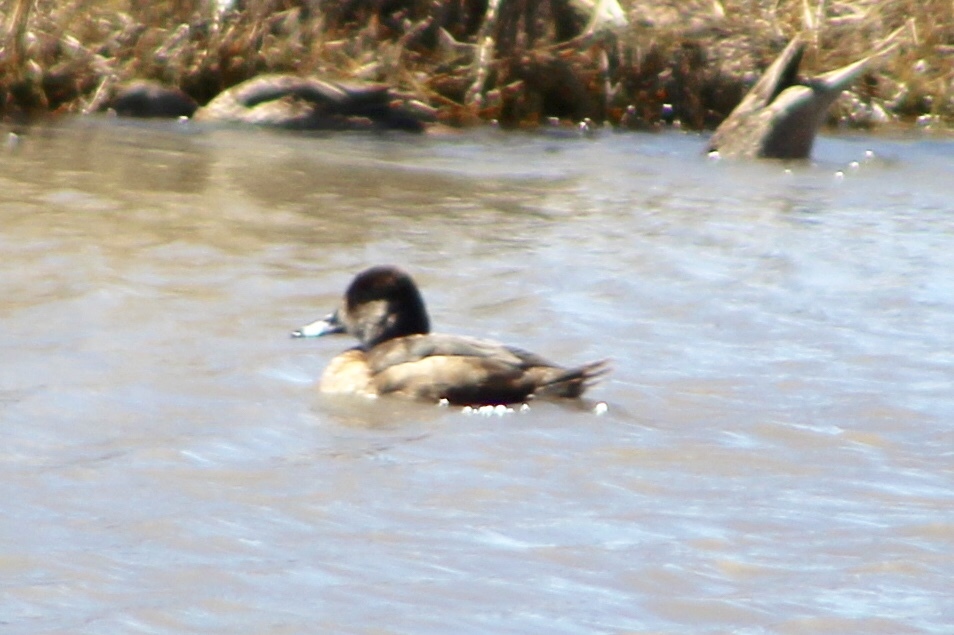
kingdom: Animalia
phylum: Chordata
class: Aves
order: Anseriformes
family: Anatidae
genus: Aythya
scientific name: Aythya collaris
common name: Ring-necked duck
